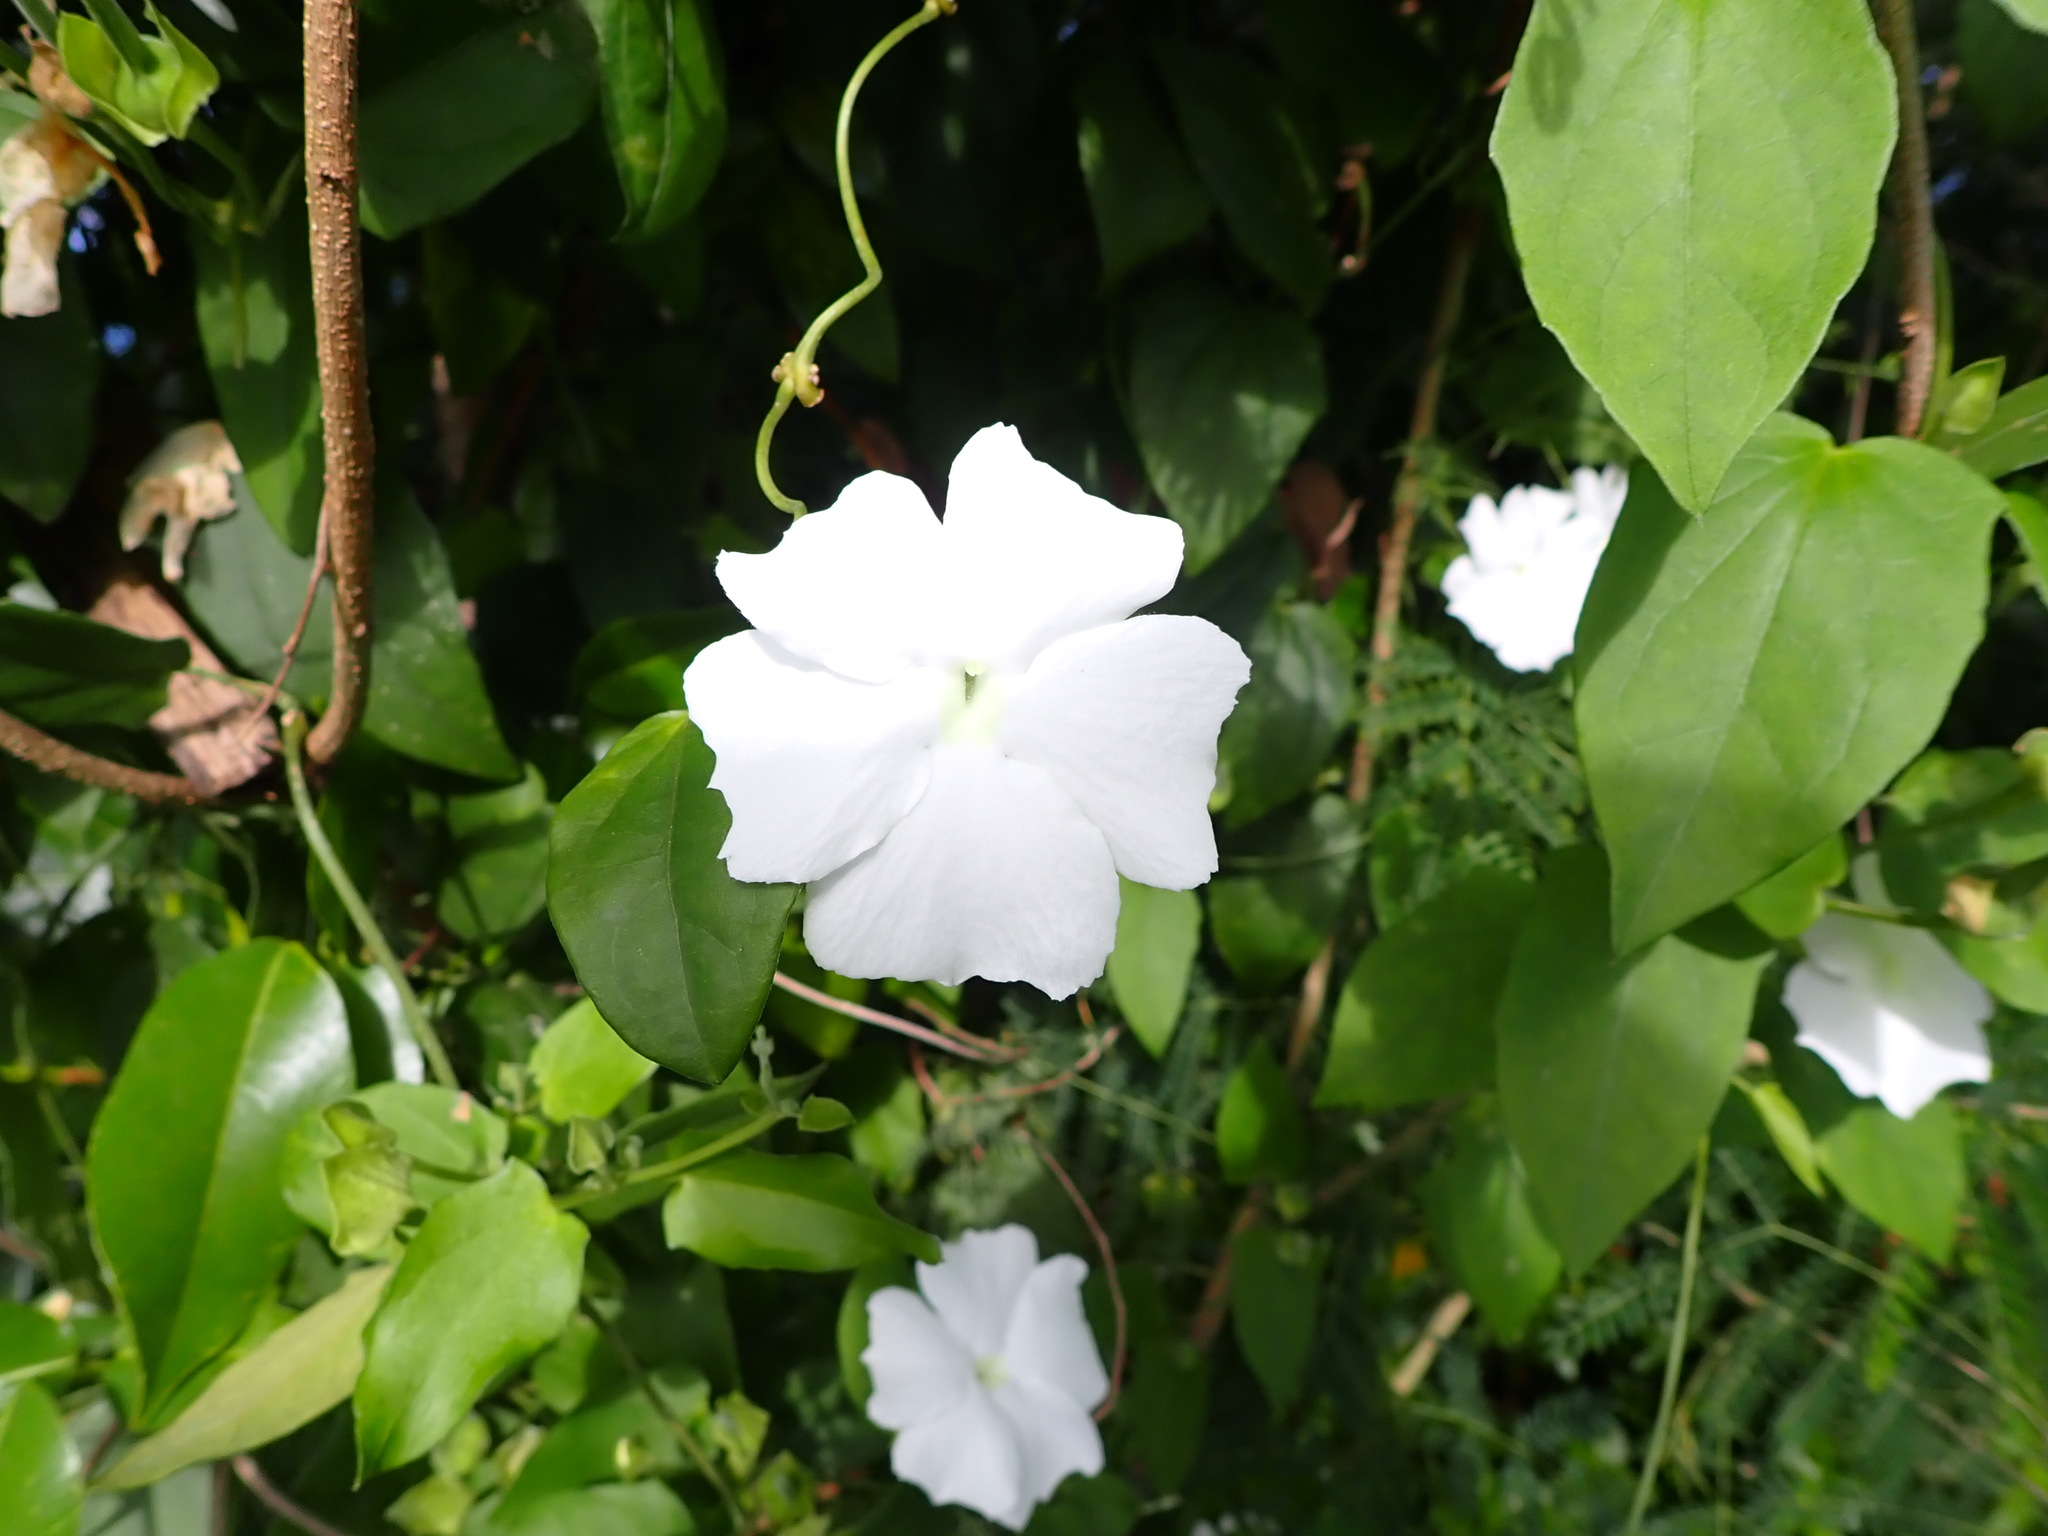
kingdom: Plantae
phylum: Tracheophyta
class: Magnoliopsida
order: Lamiales
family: Acanthaceae
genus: Thunbergia
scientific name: Thunbergia fragrans
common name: Whitelady
